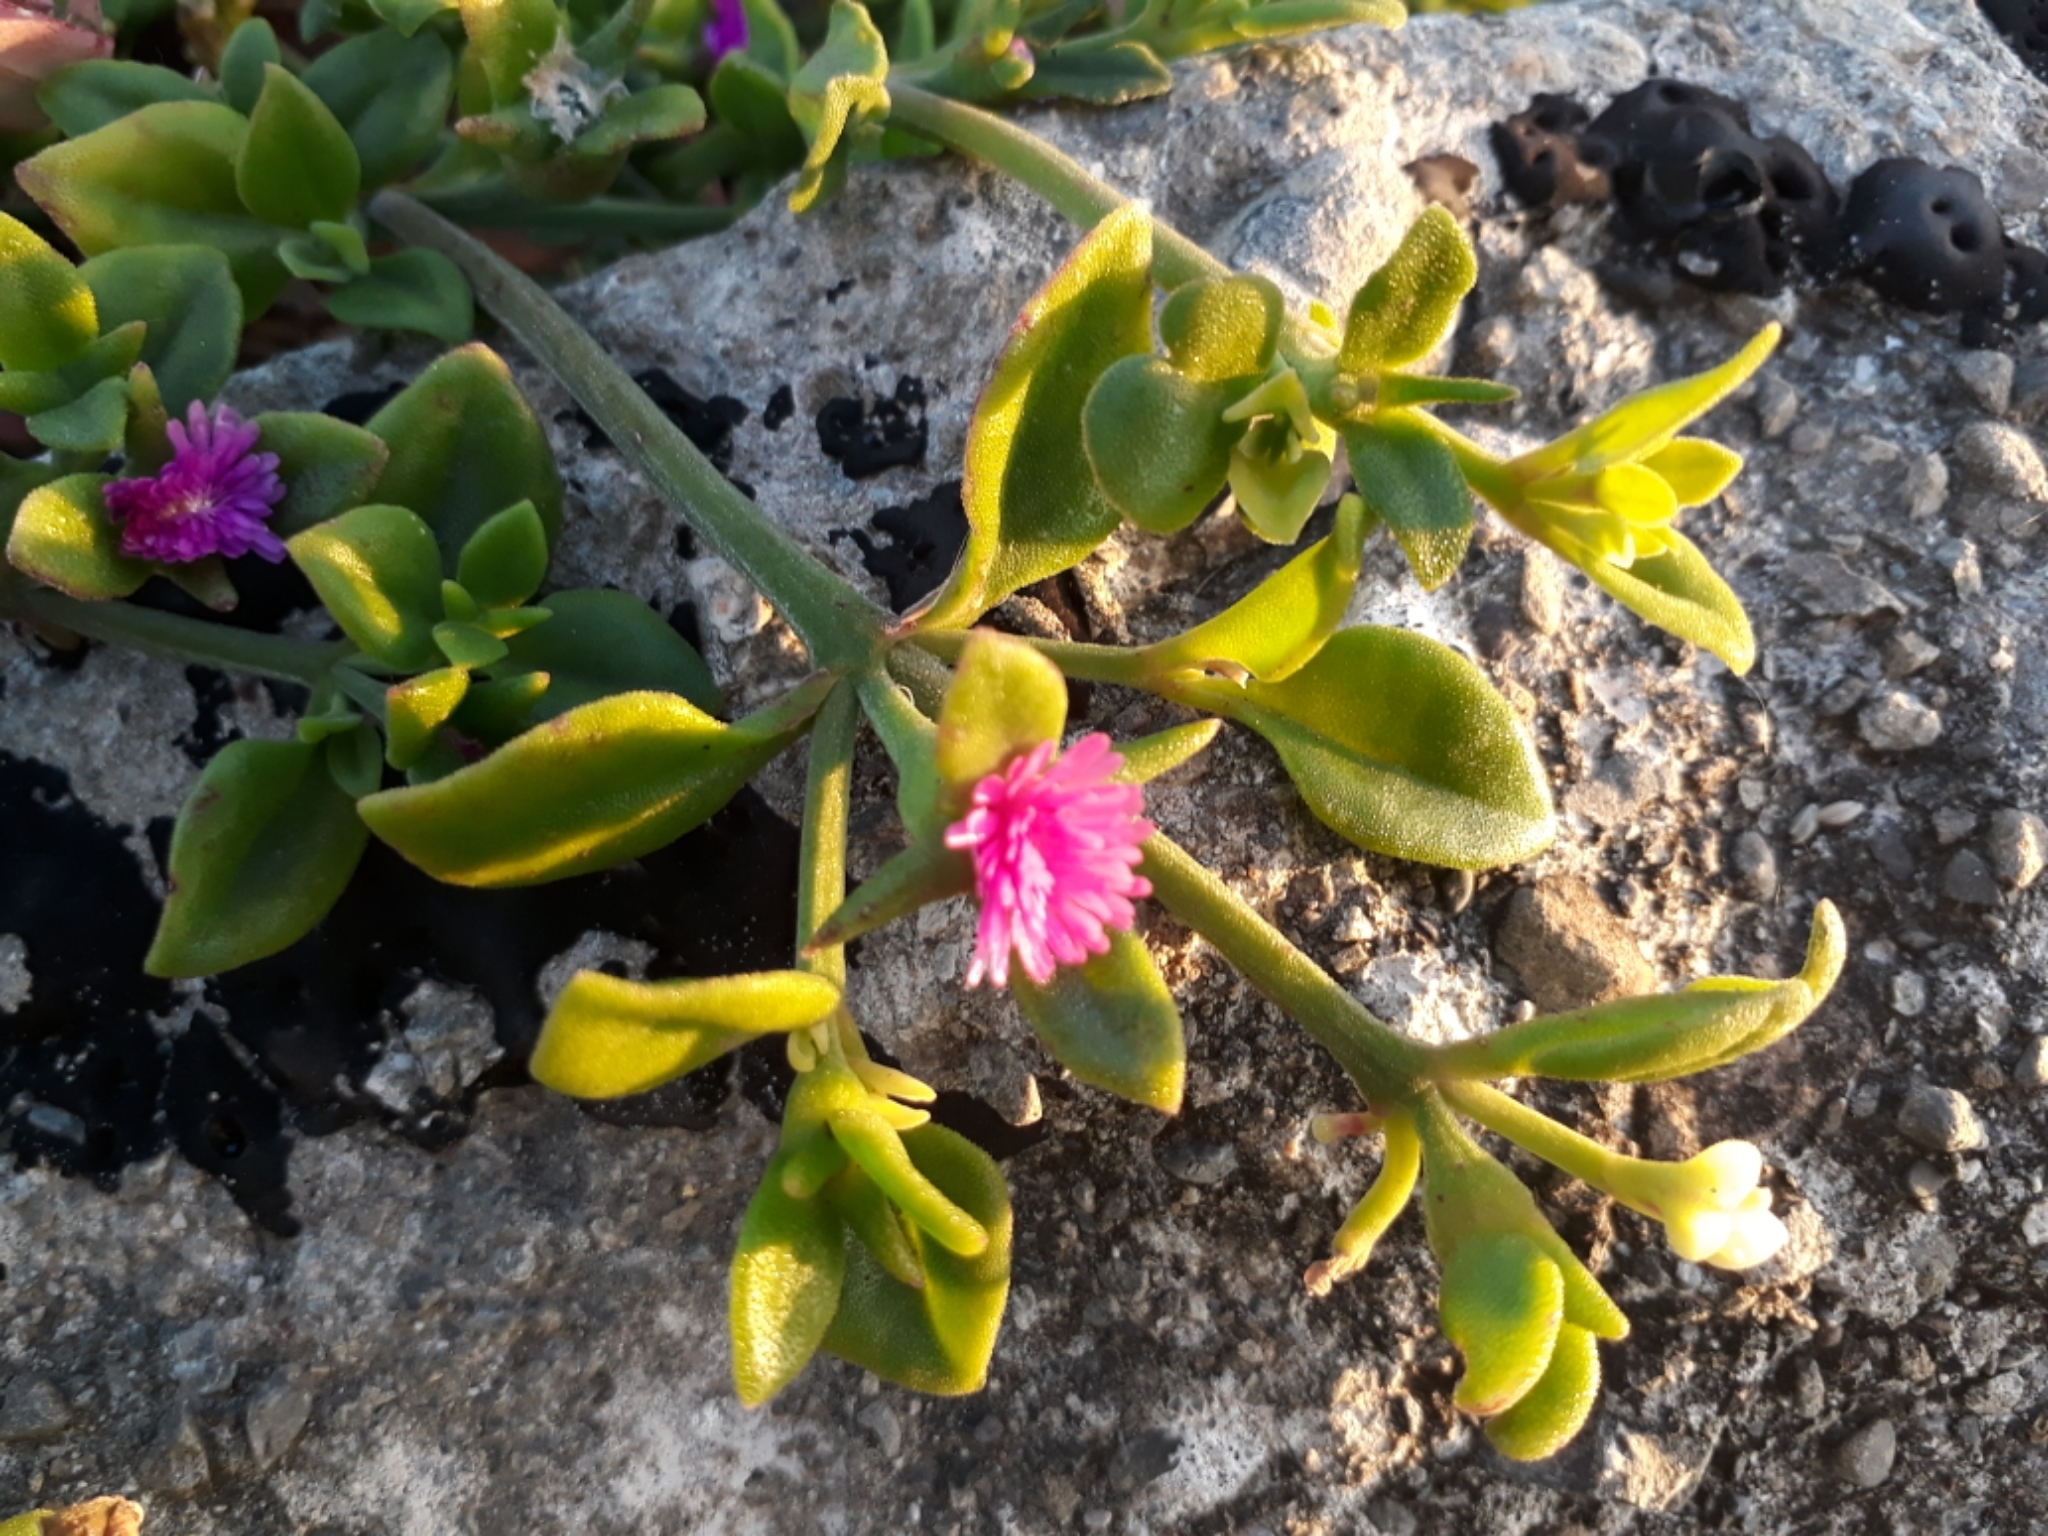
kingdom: Plantae
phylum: Tracheophyta
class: Magnoliopsida
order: Caryophyllales
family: Aizoaceae
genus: Mesembryanthemum
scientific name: Mesembryanthemum cordifolium
